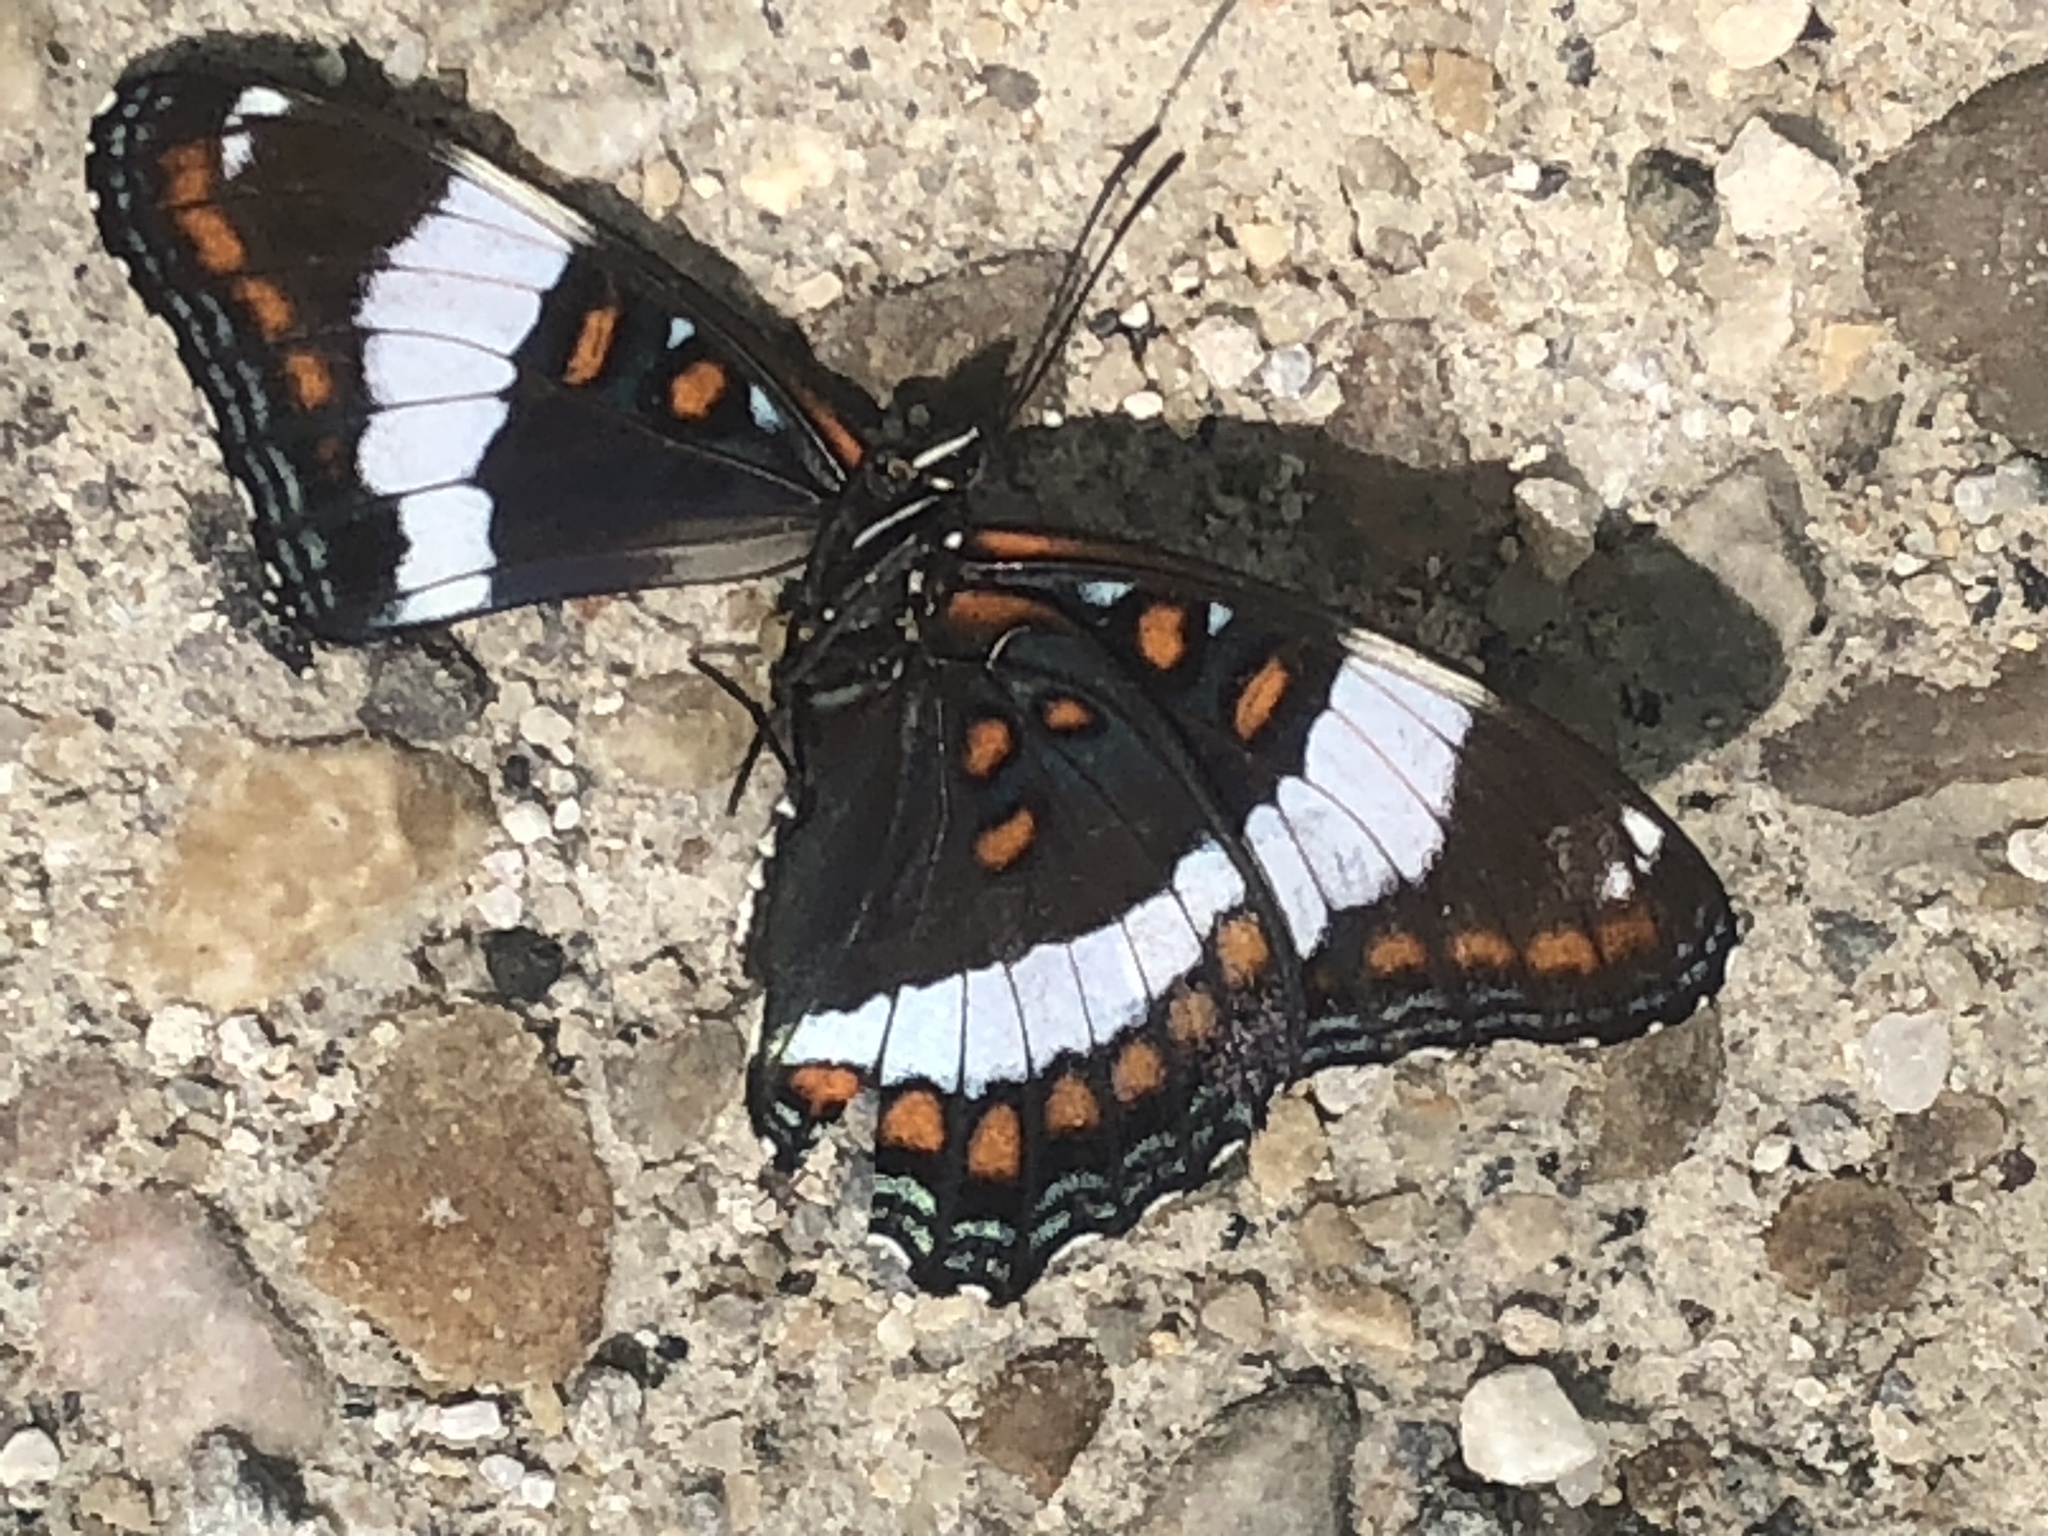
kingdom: Animalia
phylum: Arthropoda
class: Insecta
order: Lepidoptera
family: Nymphalidae
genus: Limenitis
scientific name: Limenitis arthemis
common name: Red-spotted admiral
